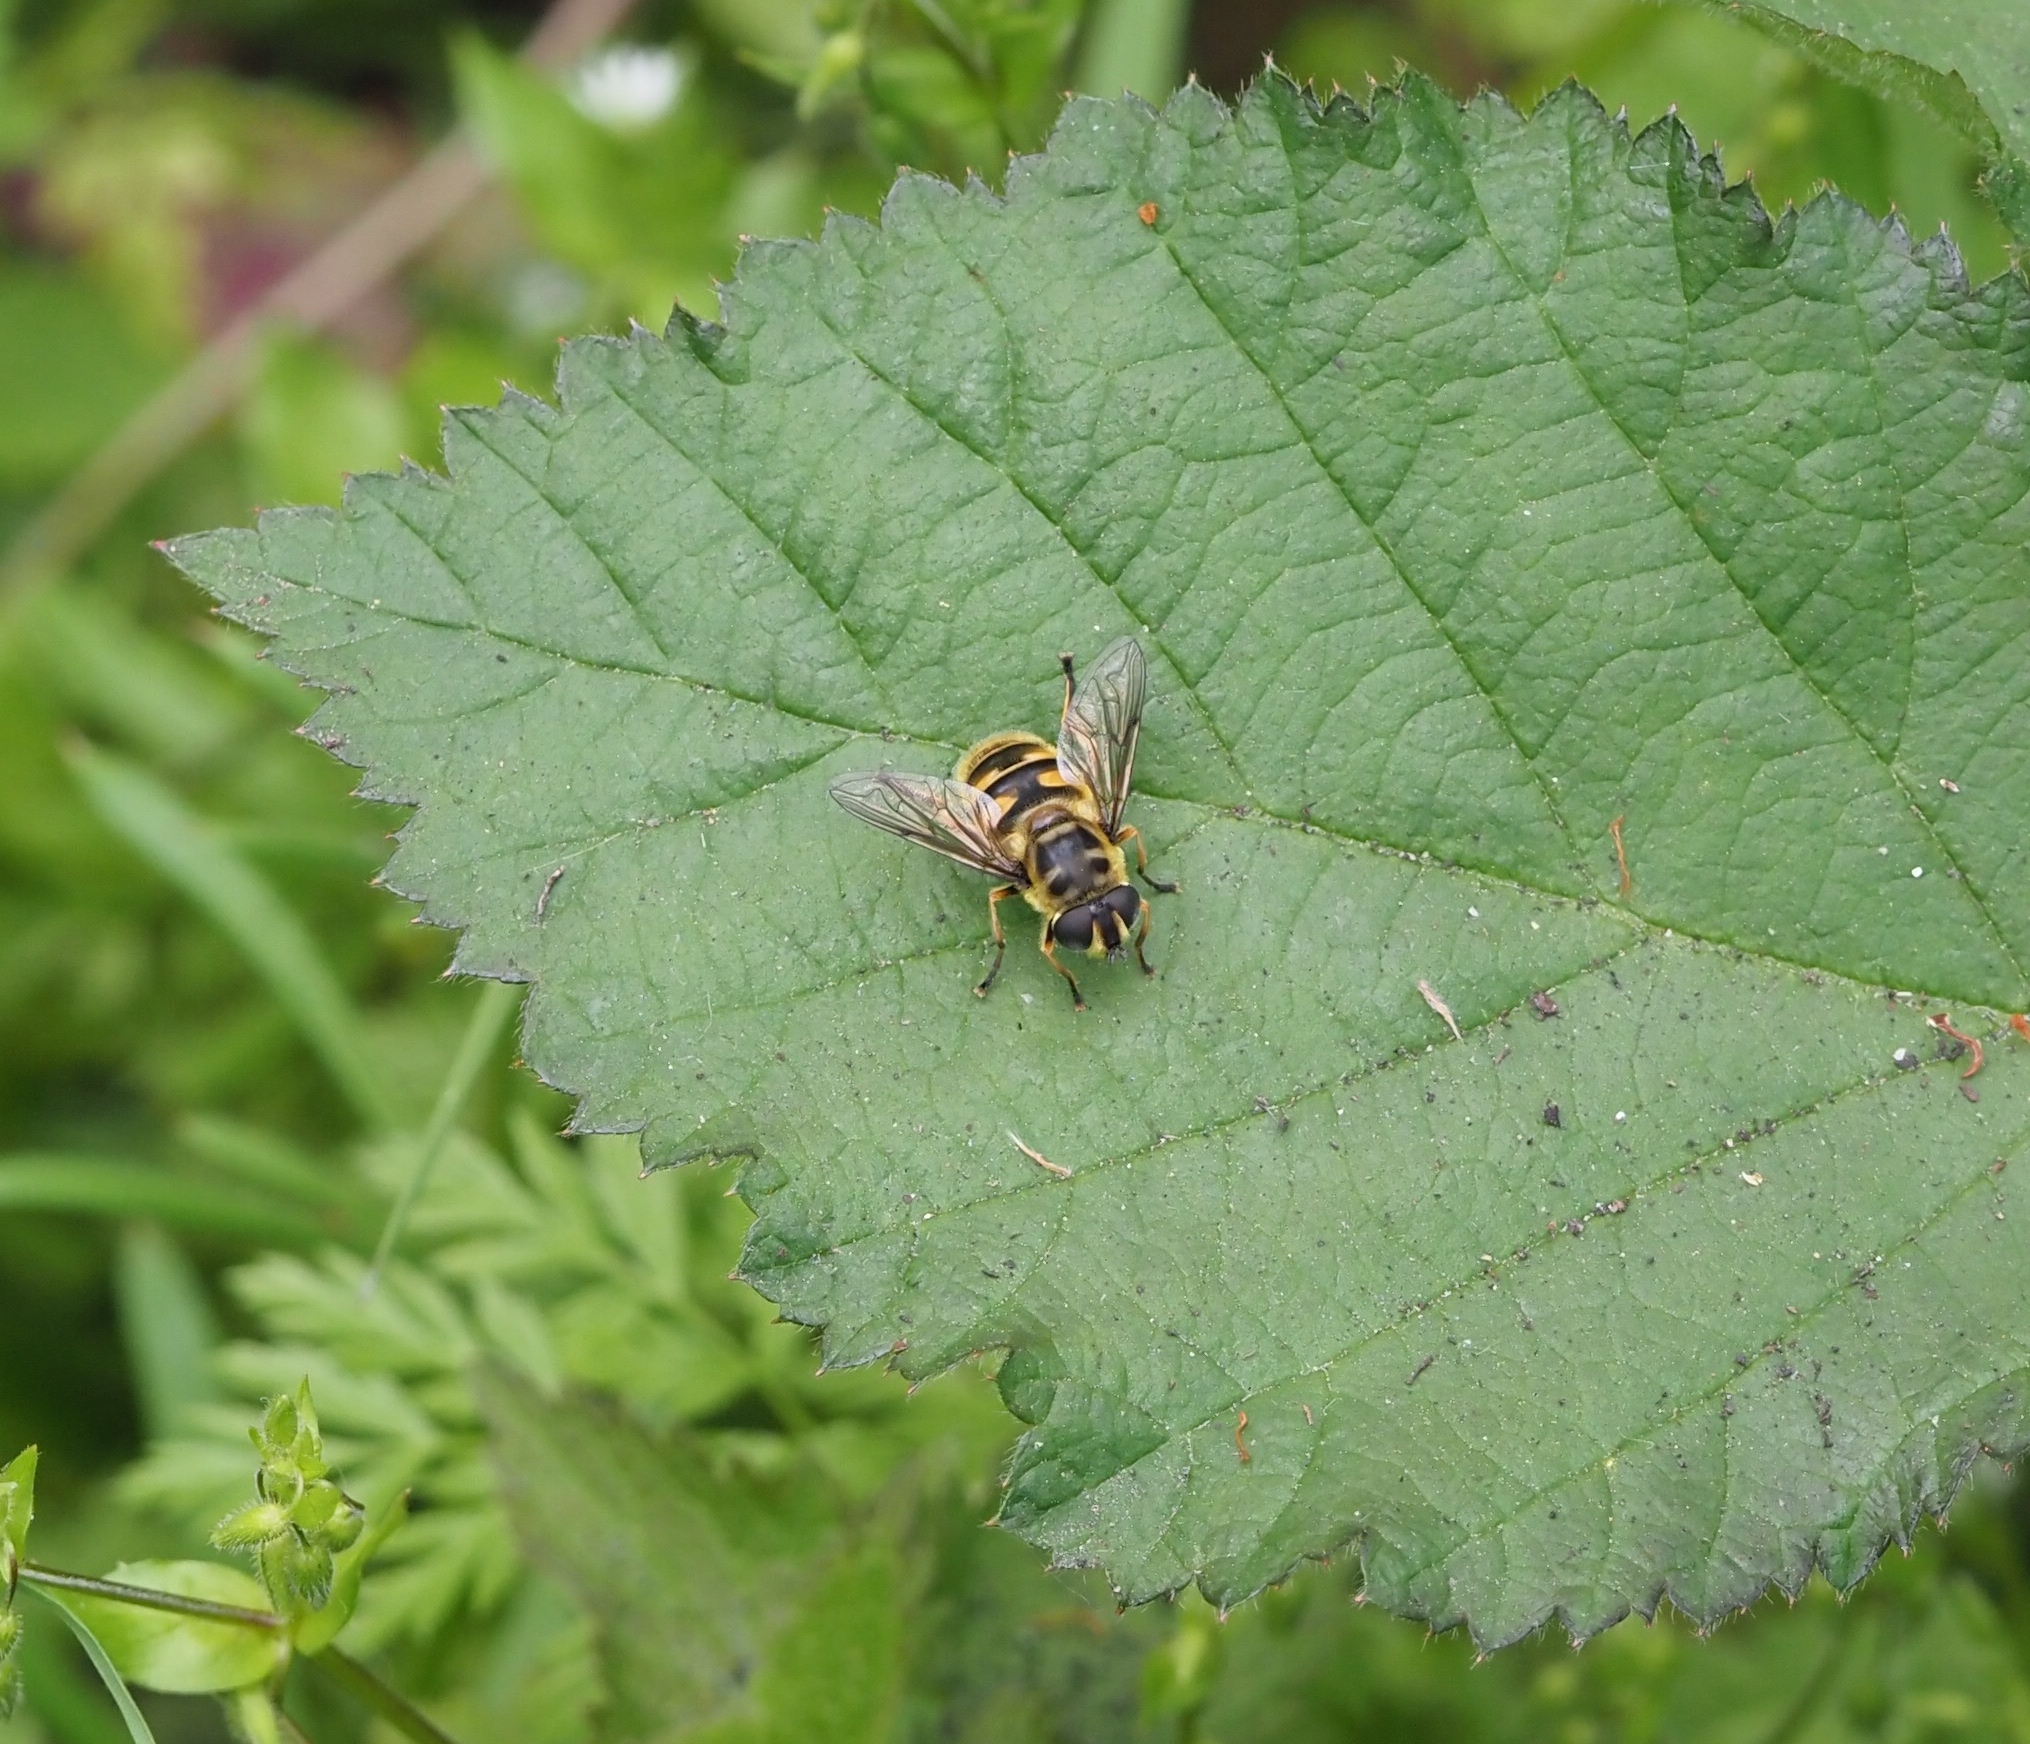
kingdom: Animalia
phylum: Arthropoda
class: Insecta
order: Diptera
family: Syrphidae
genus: Myathropa
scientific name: Myathropa florea
